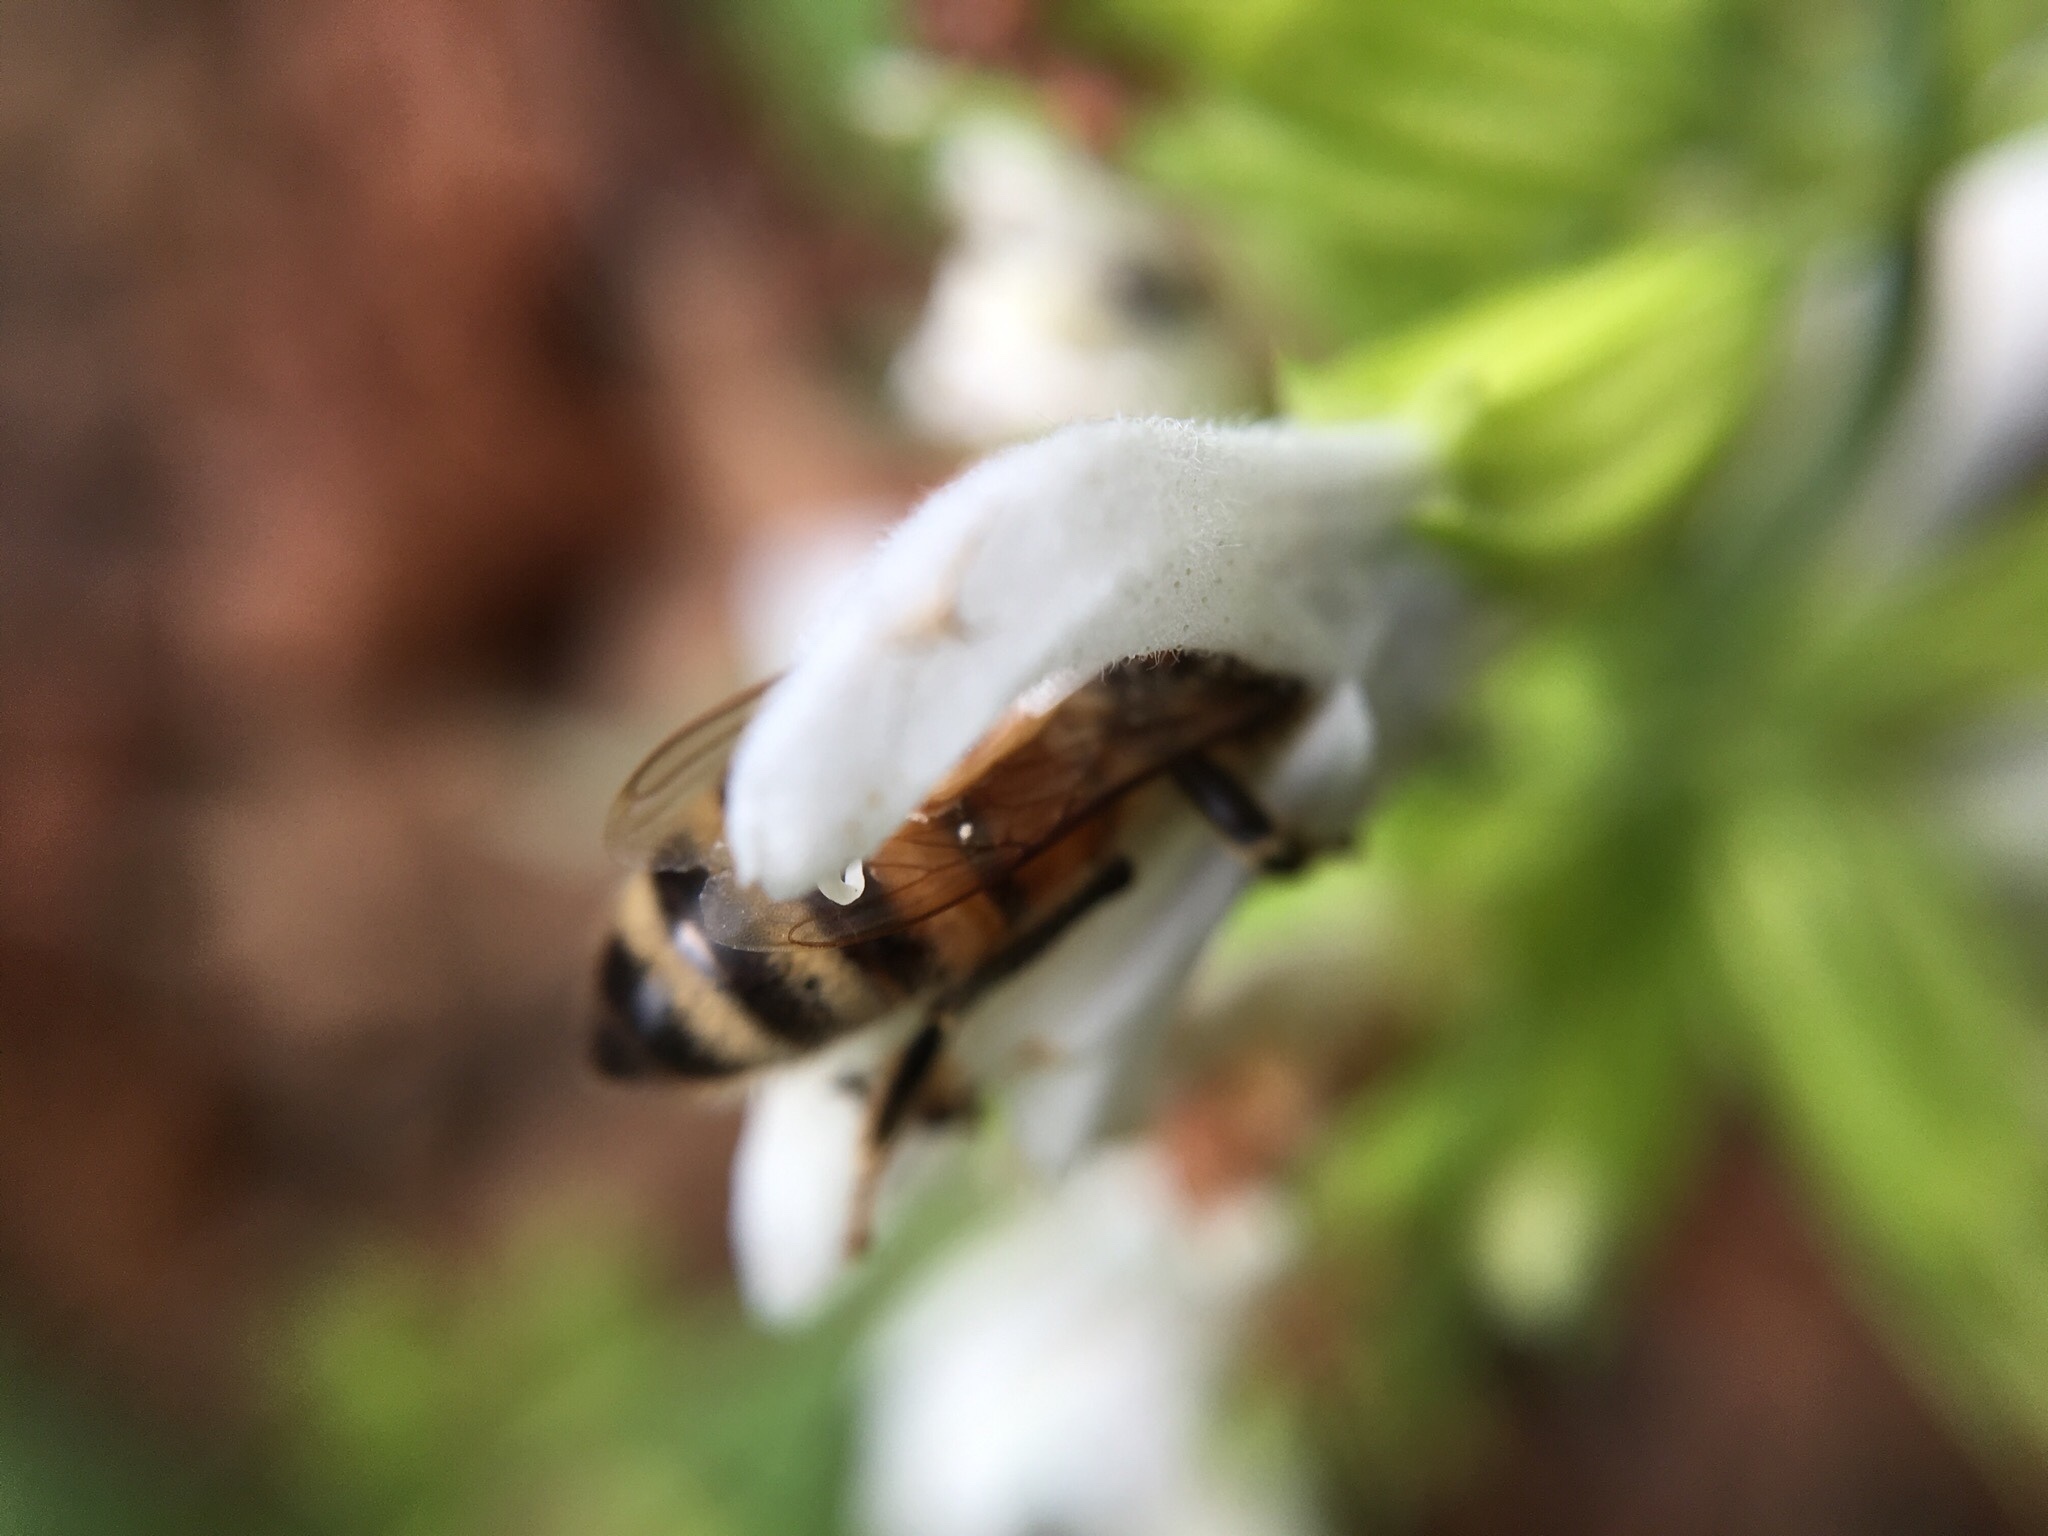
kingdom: Animalia
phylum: Arthropoda
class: Insecta
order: Hymenoptera
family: Apidae
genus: Apis
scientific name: Apis mellifera
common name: Honey bee
